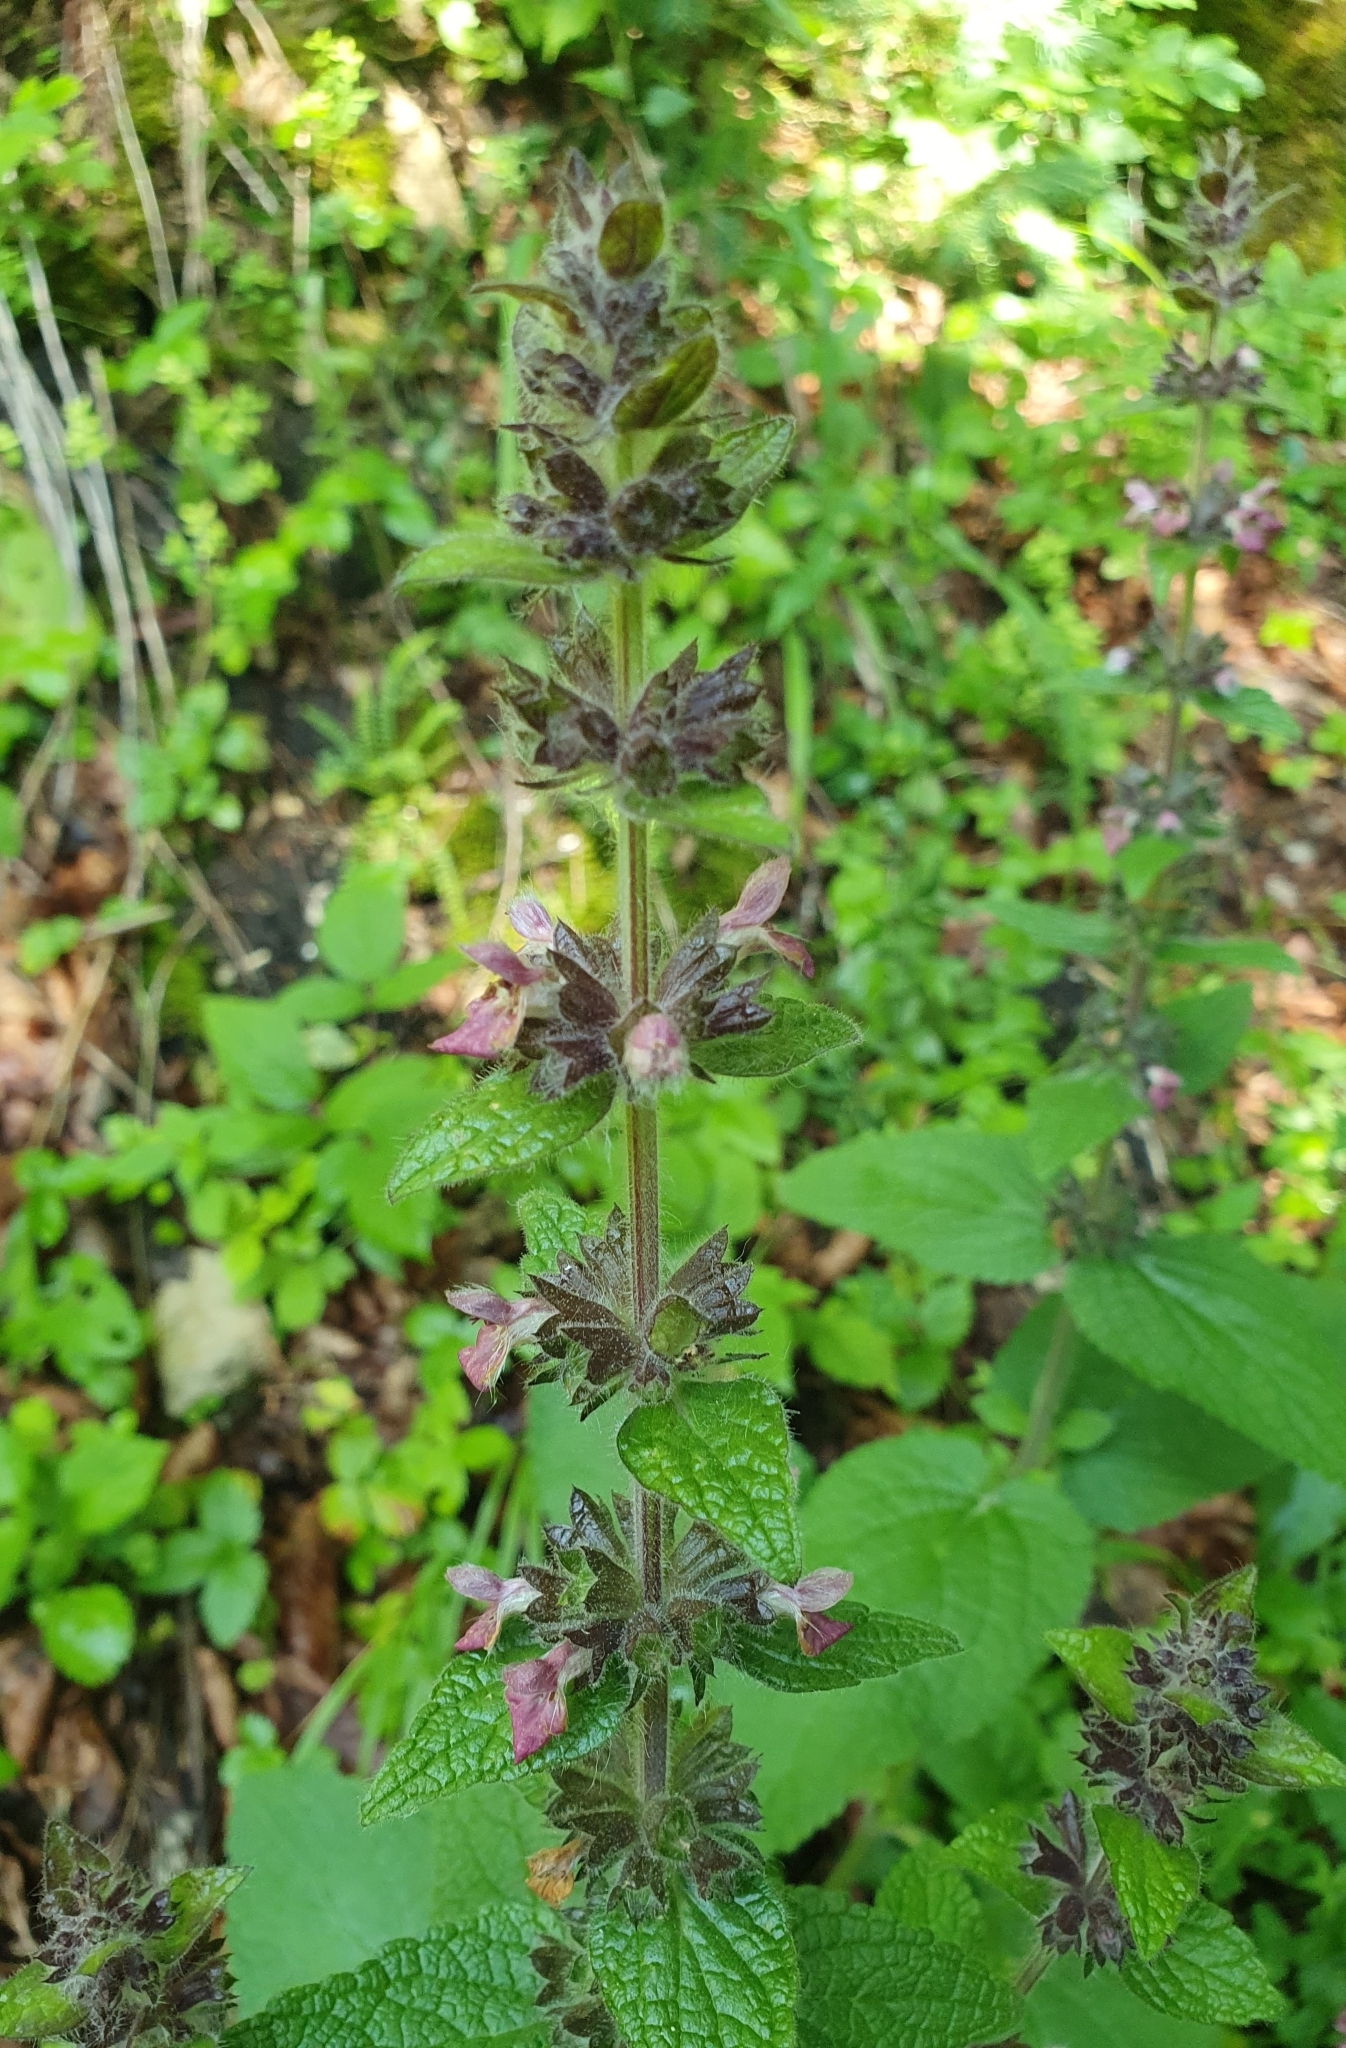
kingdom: Plantae
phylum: Tracheophyta
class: Magnoliopsida
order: Lamiales
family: Lamiaceae
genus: Stachys
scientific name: Stachys alpina
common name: Limestone woundwort
